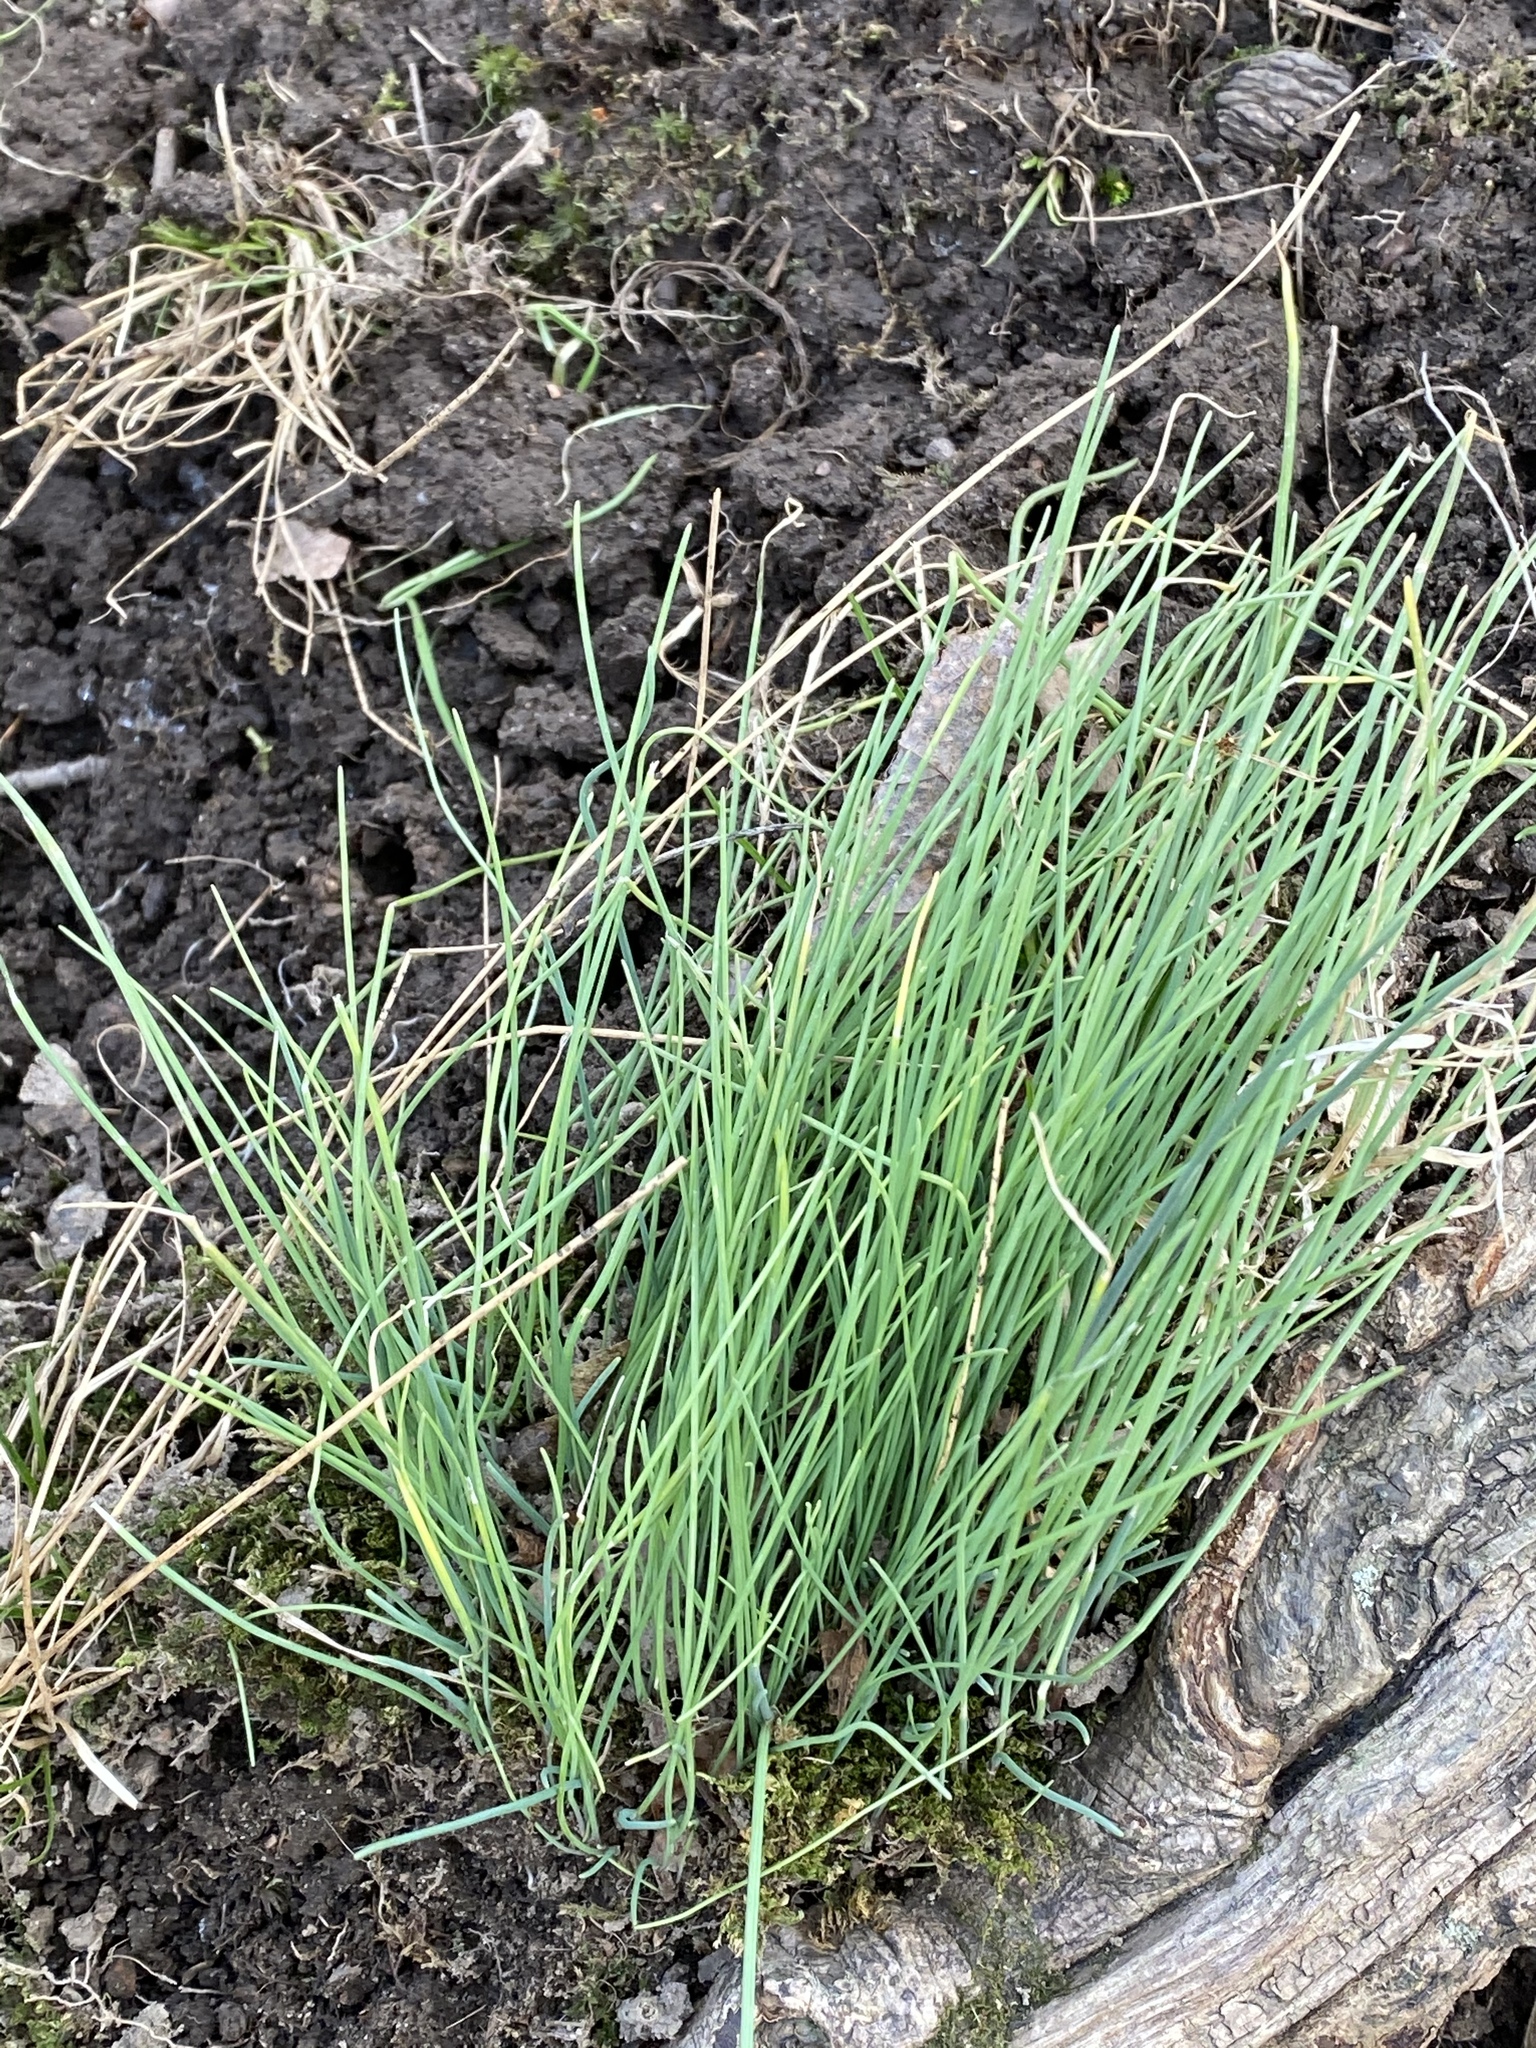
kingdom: Plantae
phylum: Tracheophyta
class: Liliopsida
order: Asparagales
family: Amaryllidaceae
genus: Allium
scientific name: Allium vineale
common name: Crow garlic
